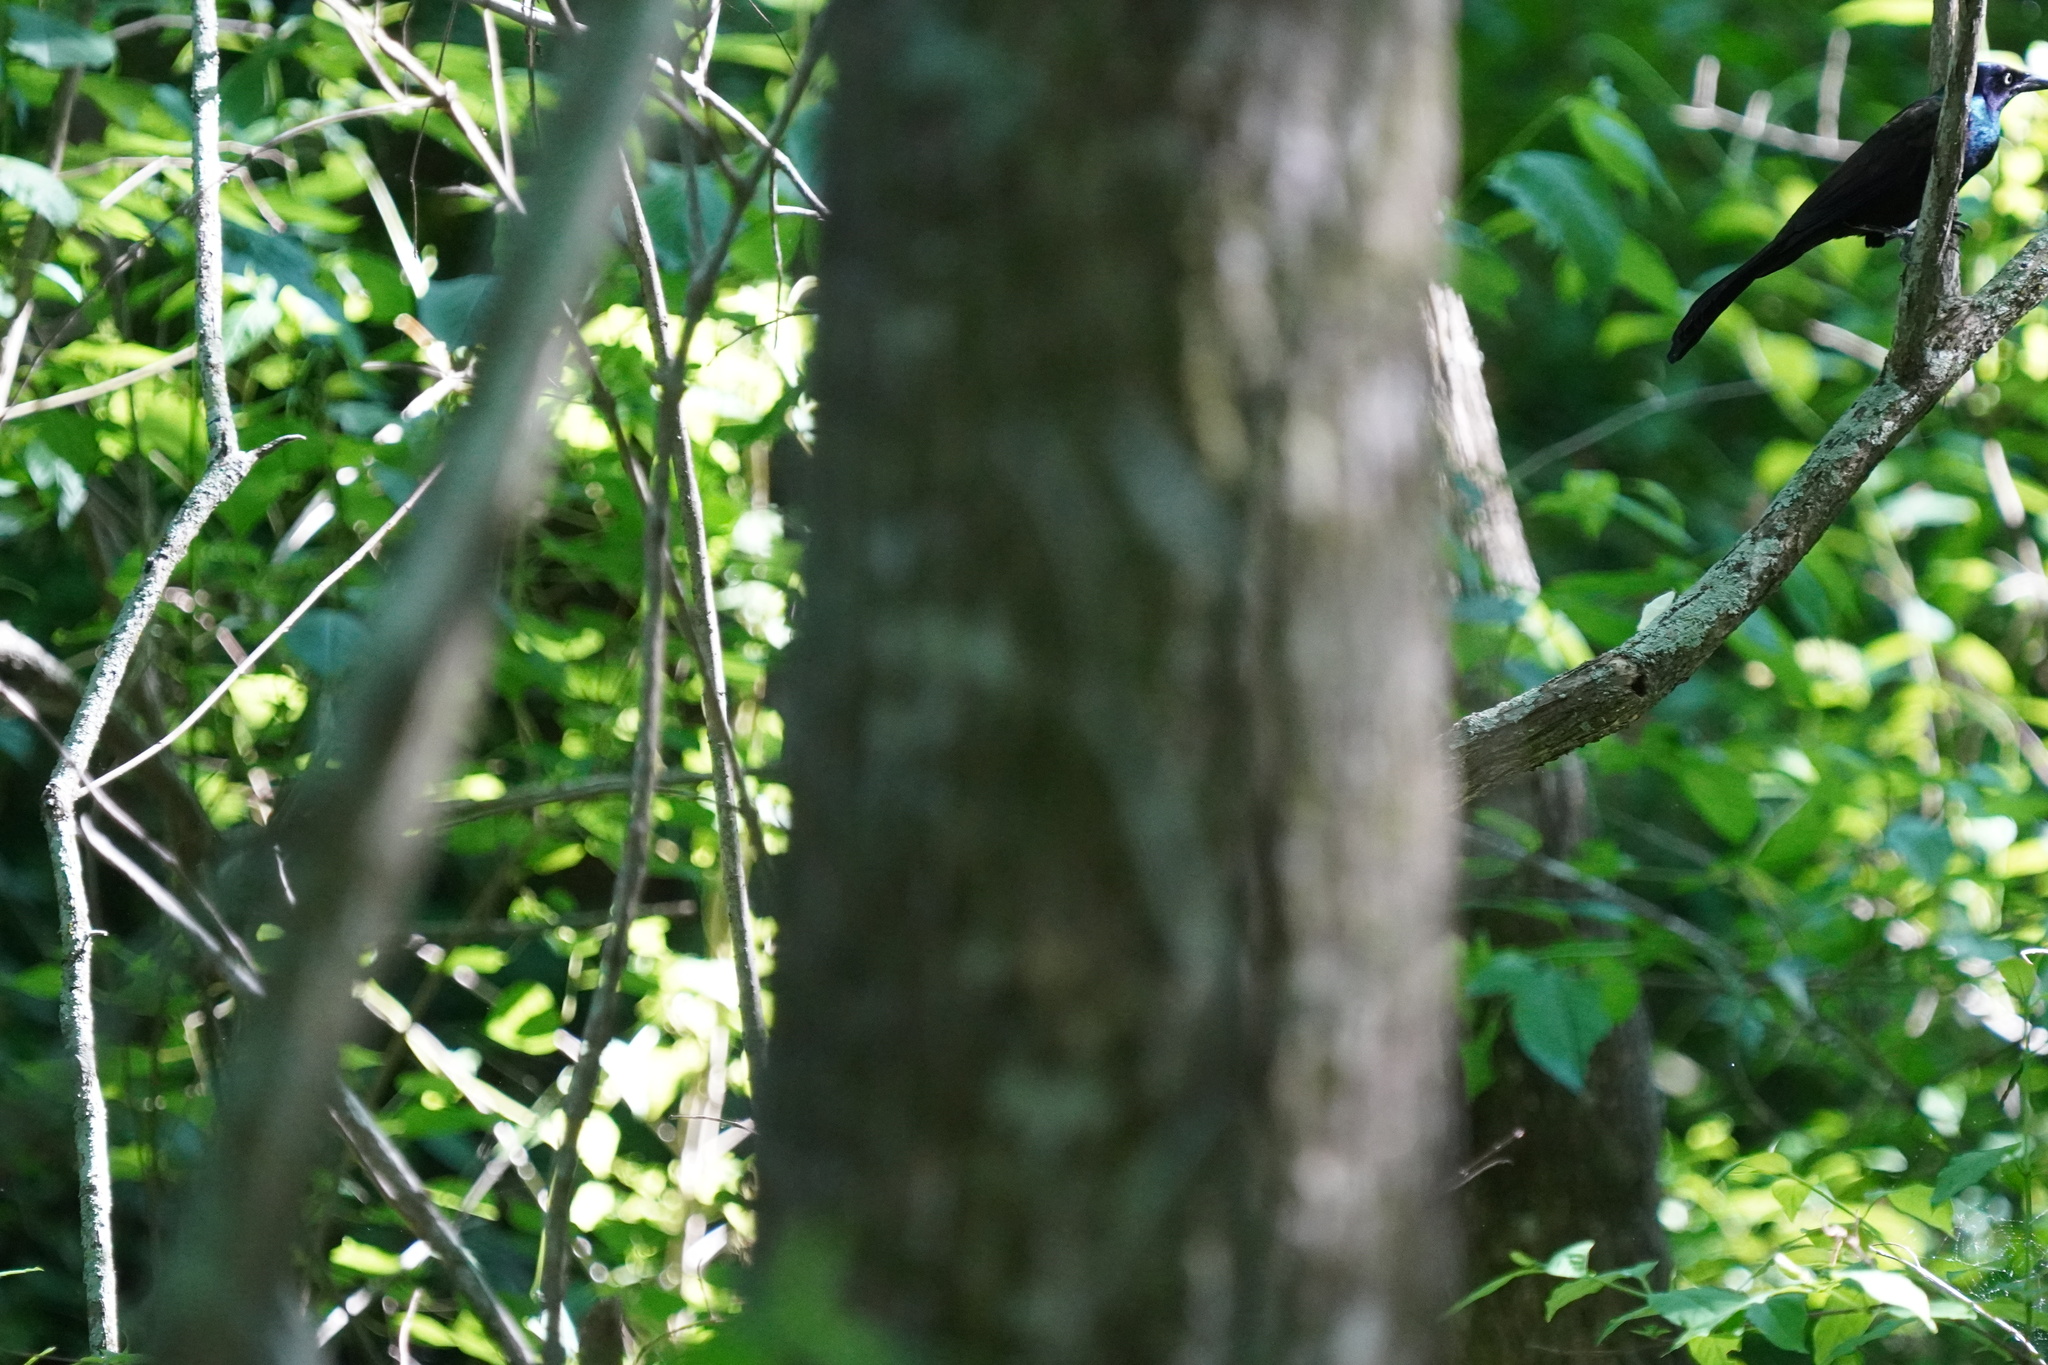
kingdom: Animalia
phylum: Chordata
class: Aves
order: Passeriformes
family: Icteridae
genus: Quiscalus
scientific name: Quiscalus quiscula
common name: Common grackle
